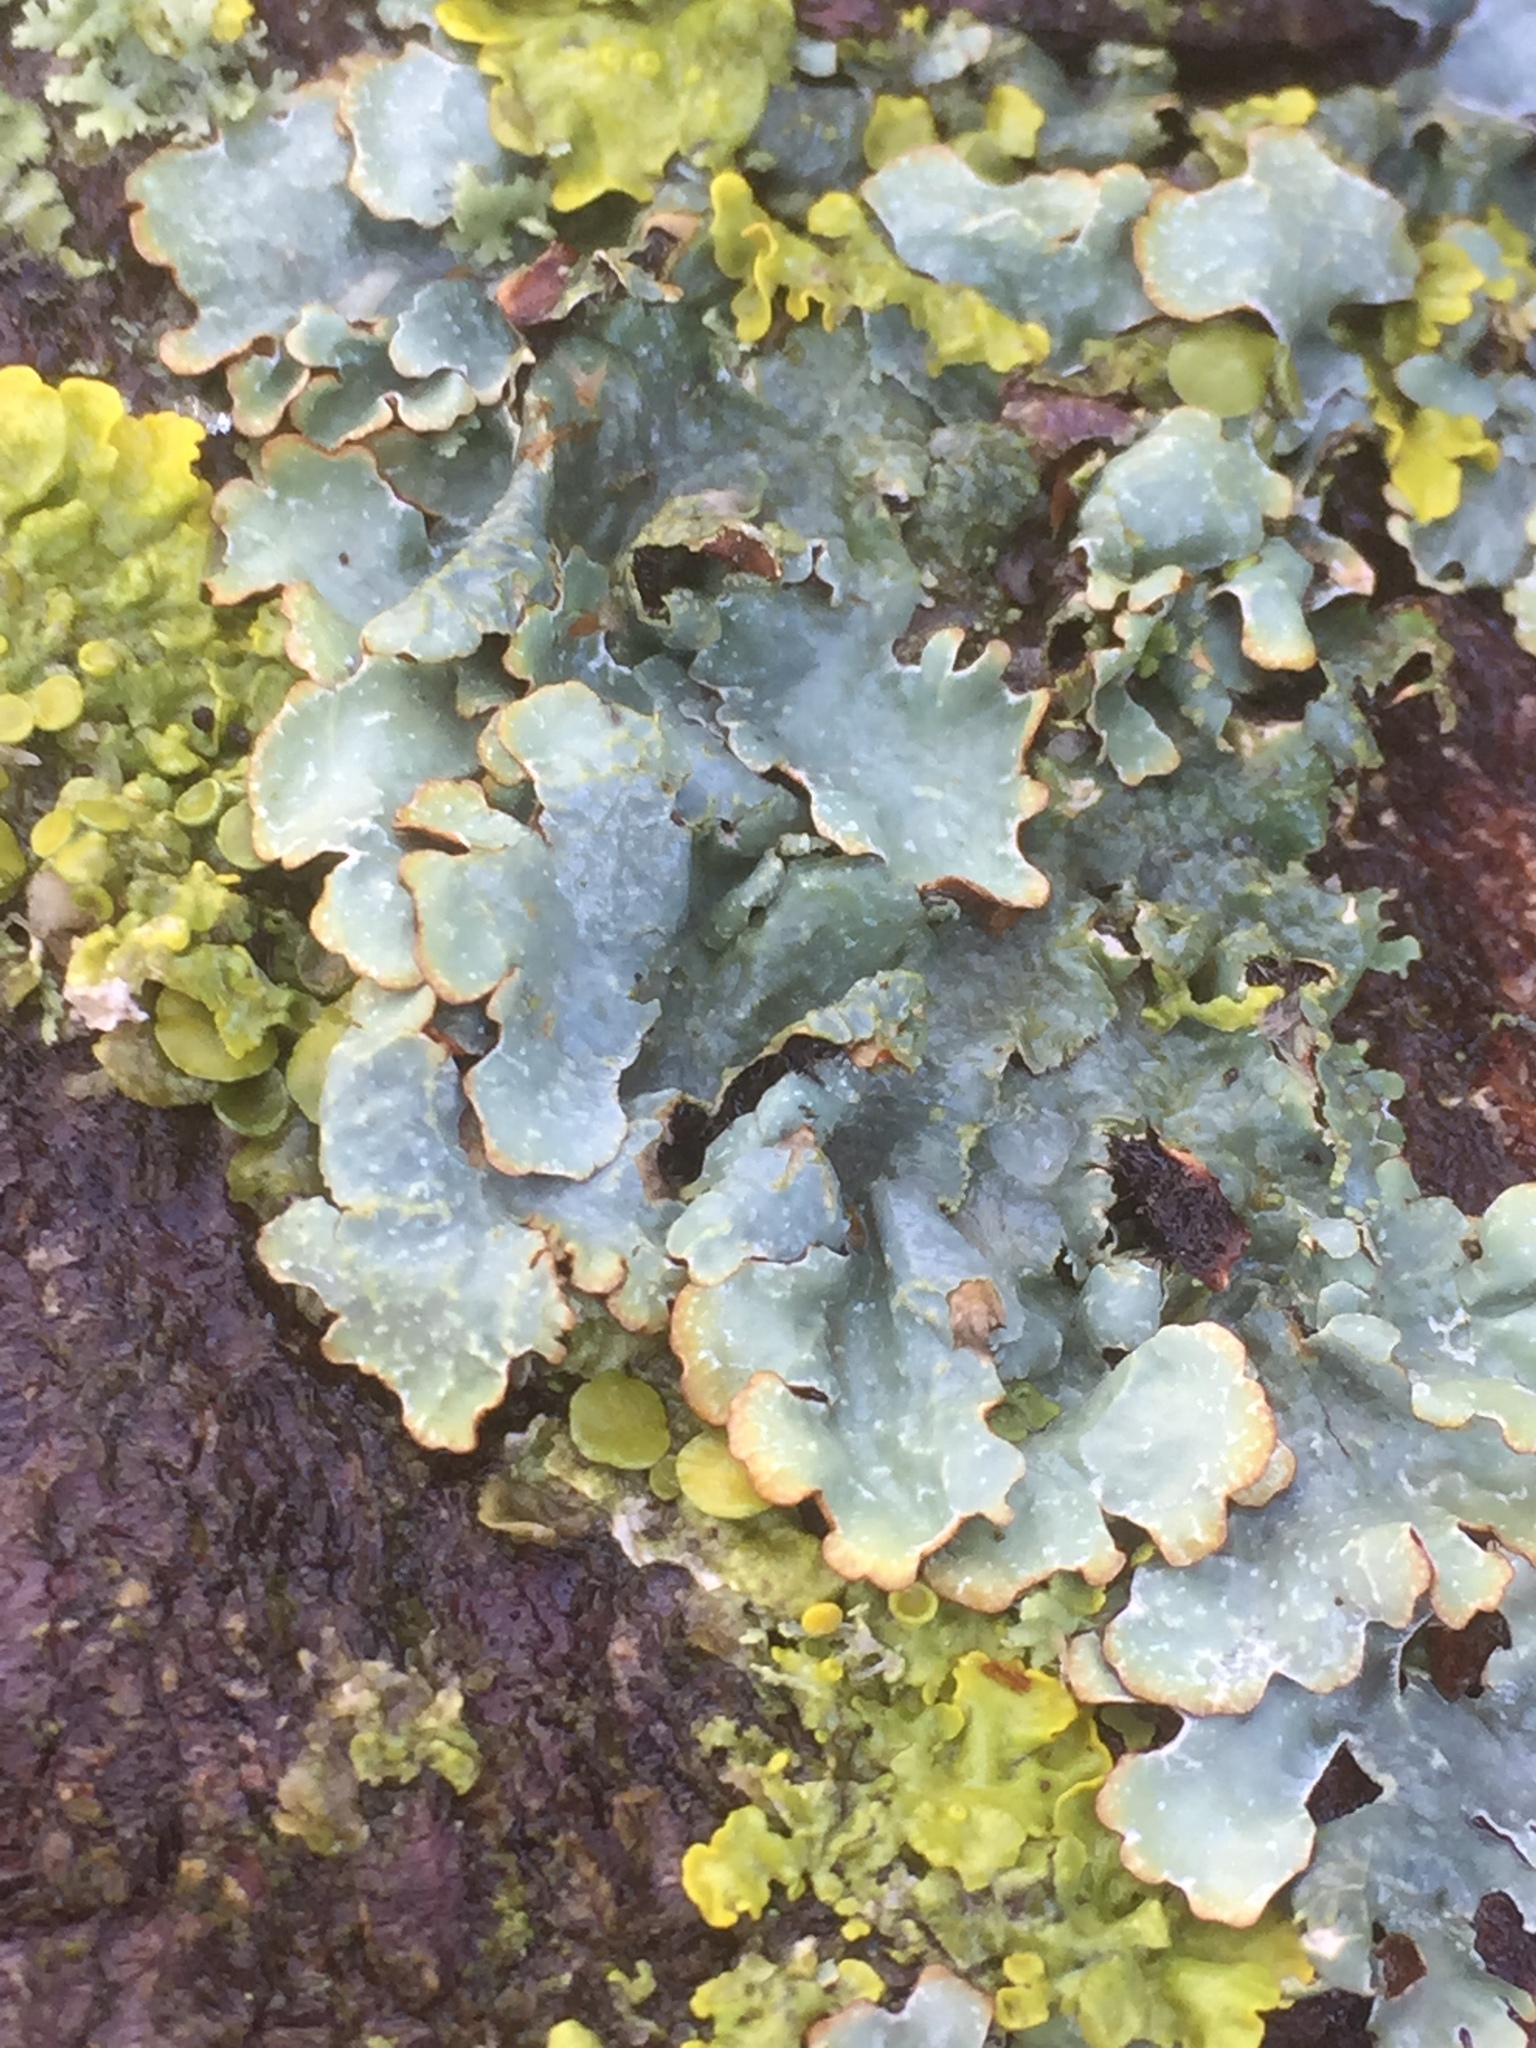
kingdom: Fungi
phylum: Ascomycota
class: Lecanoromycetes
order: Lecanorales
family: Parmeliaceae
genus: Parmelia
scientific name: Parmelia sulcata
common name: Netted shield lichen
